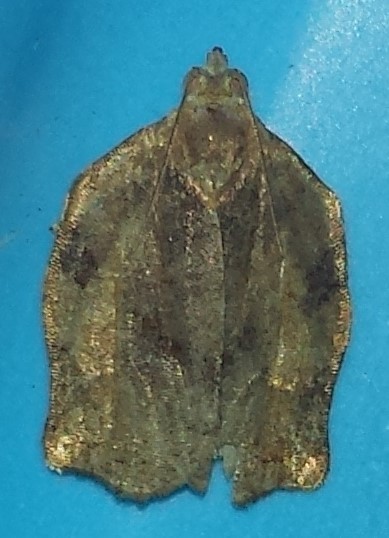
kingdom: Animalia
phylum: Arthropoda
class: Insecta
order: Lepidoptera
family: Tortricidae
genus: Archips
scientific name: Archips purpurana
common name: Omnivorous leafroller
